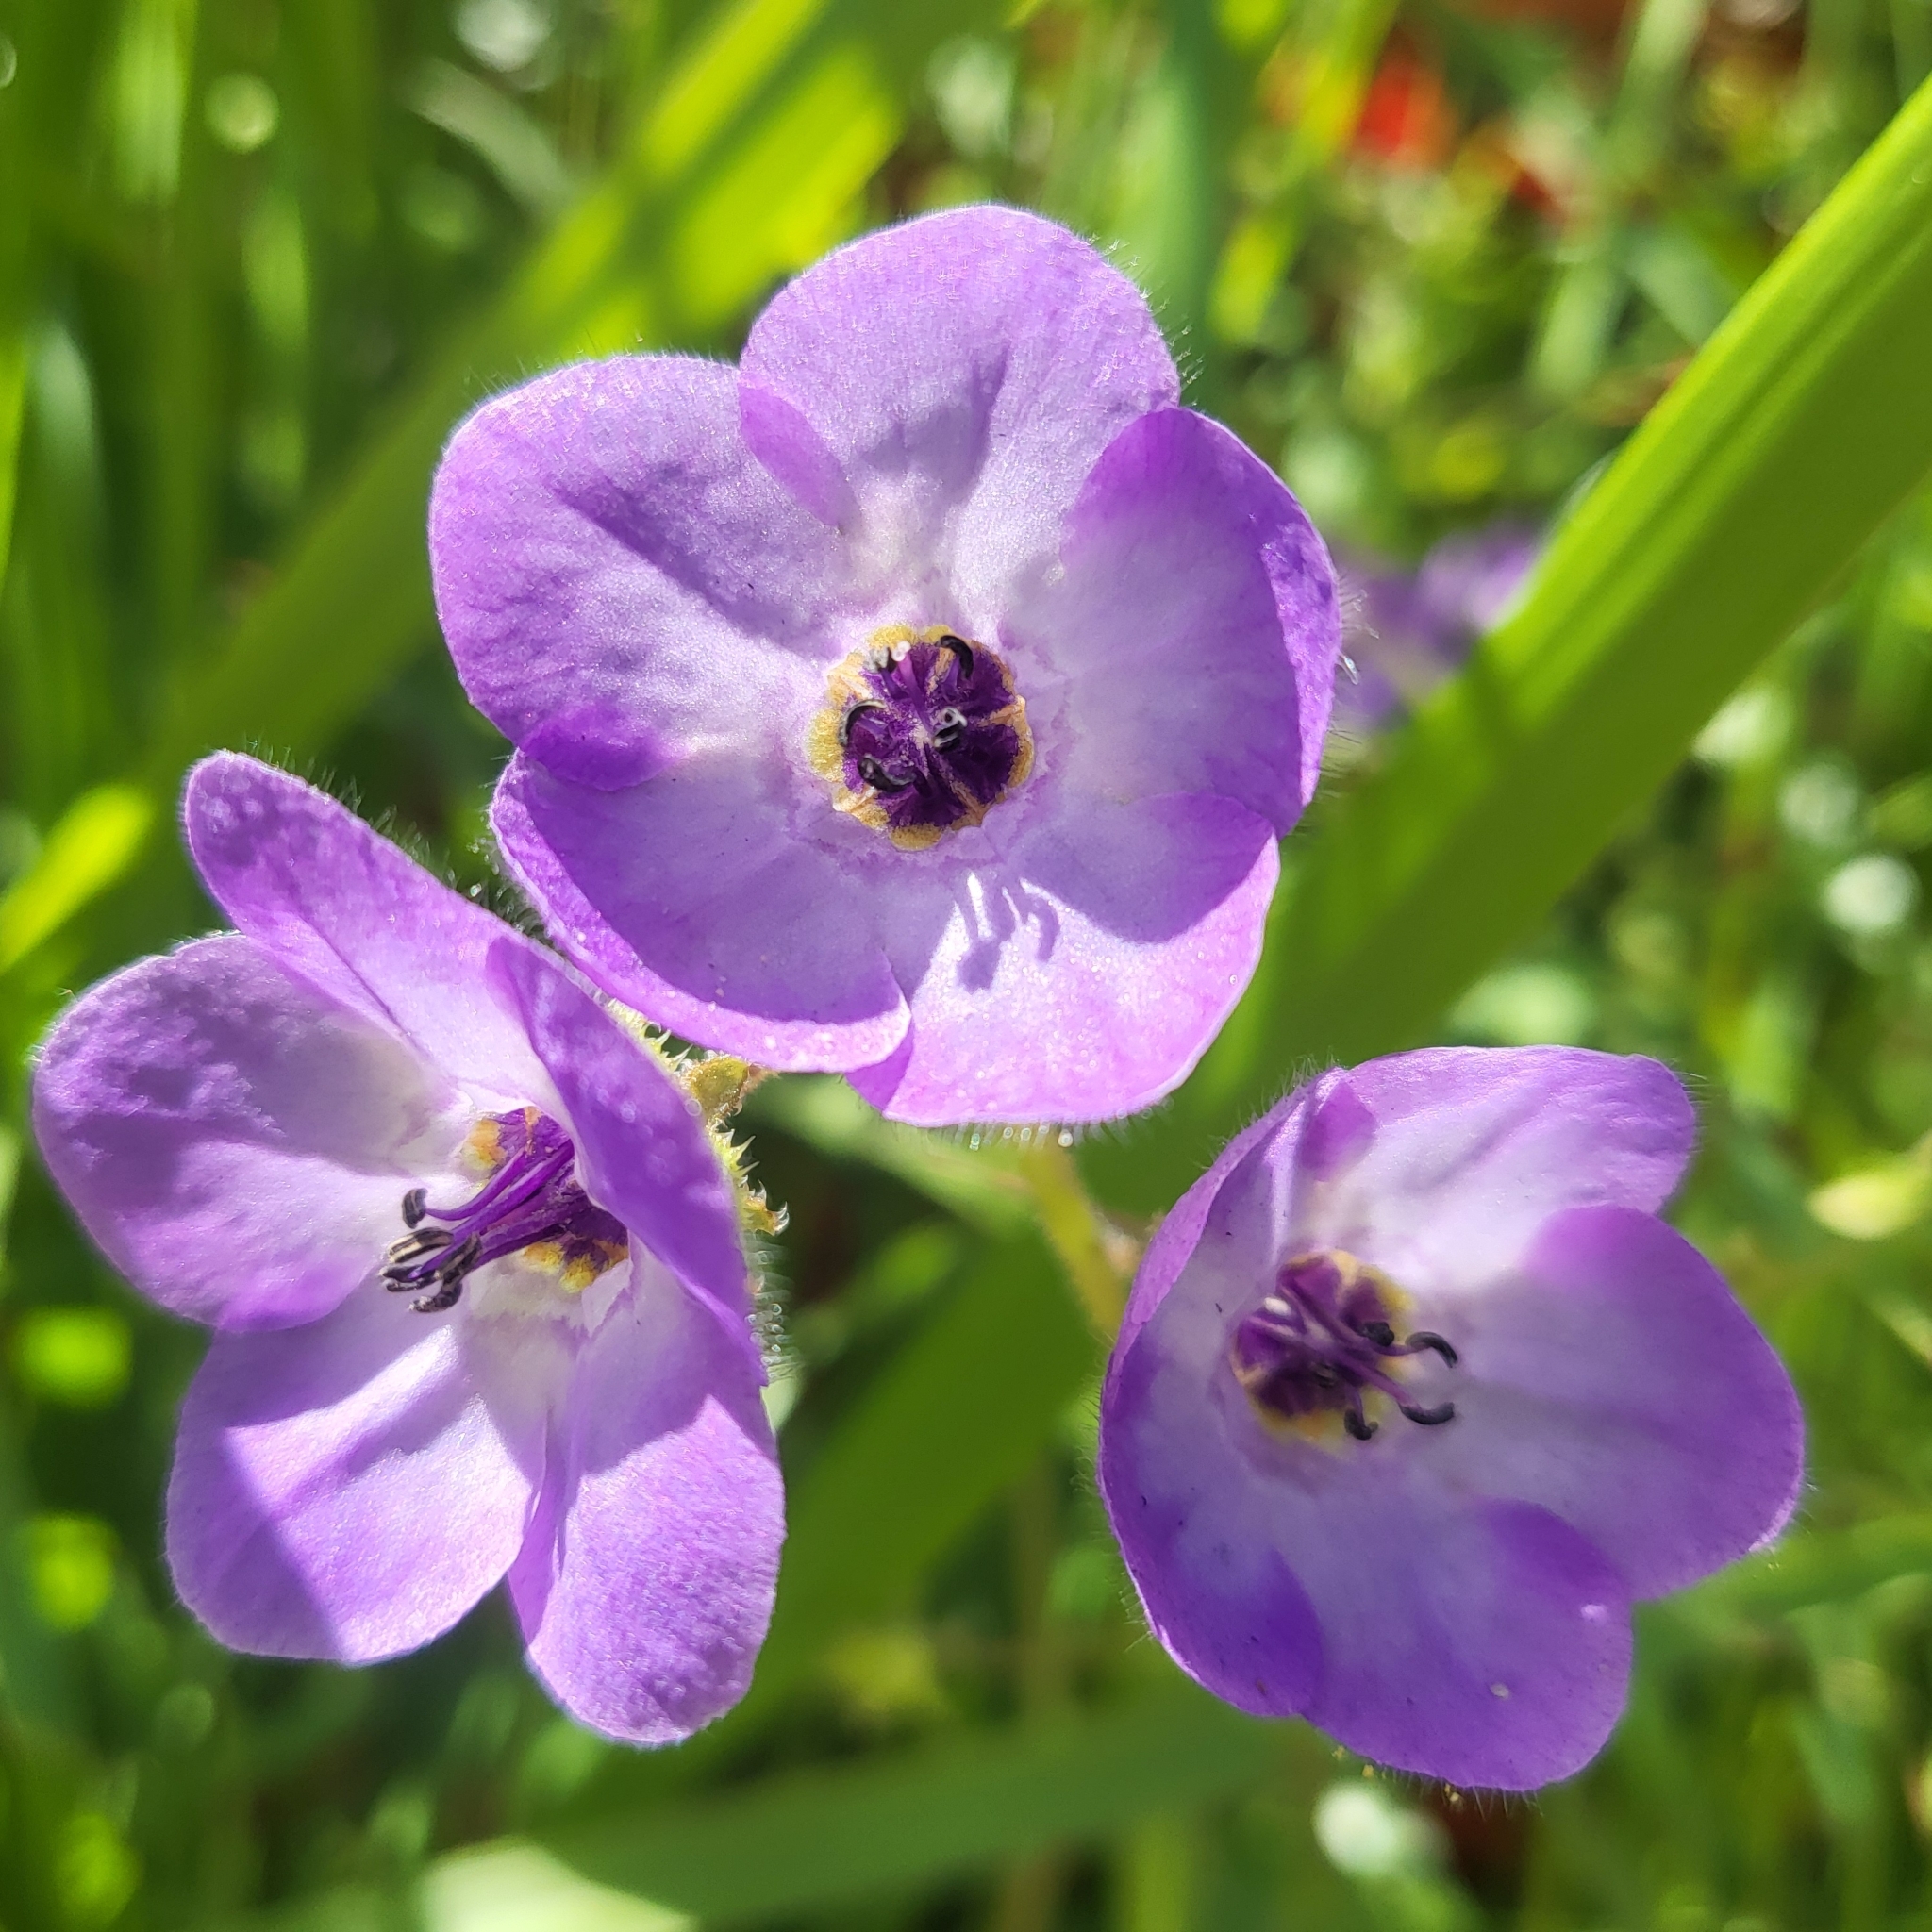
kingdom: Plantae
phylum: Tracheophyta
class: Magnoliopsida
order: Boraginales
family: Hydrophyllaceae
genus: Pholistoma
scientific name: Pholistoma auritum
